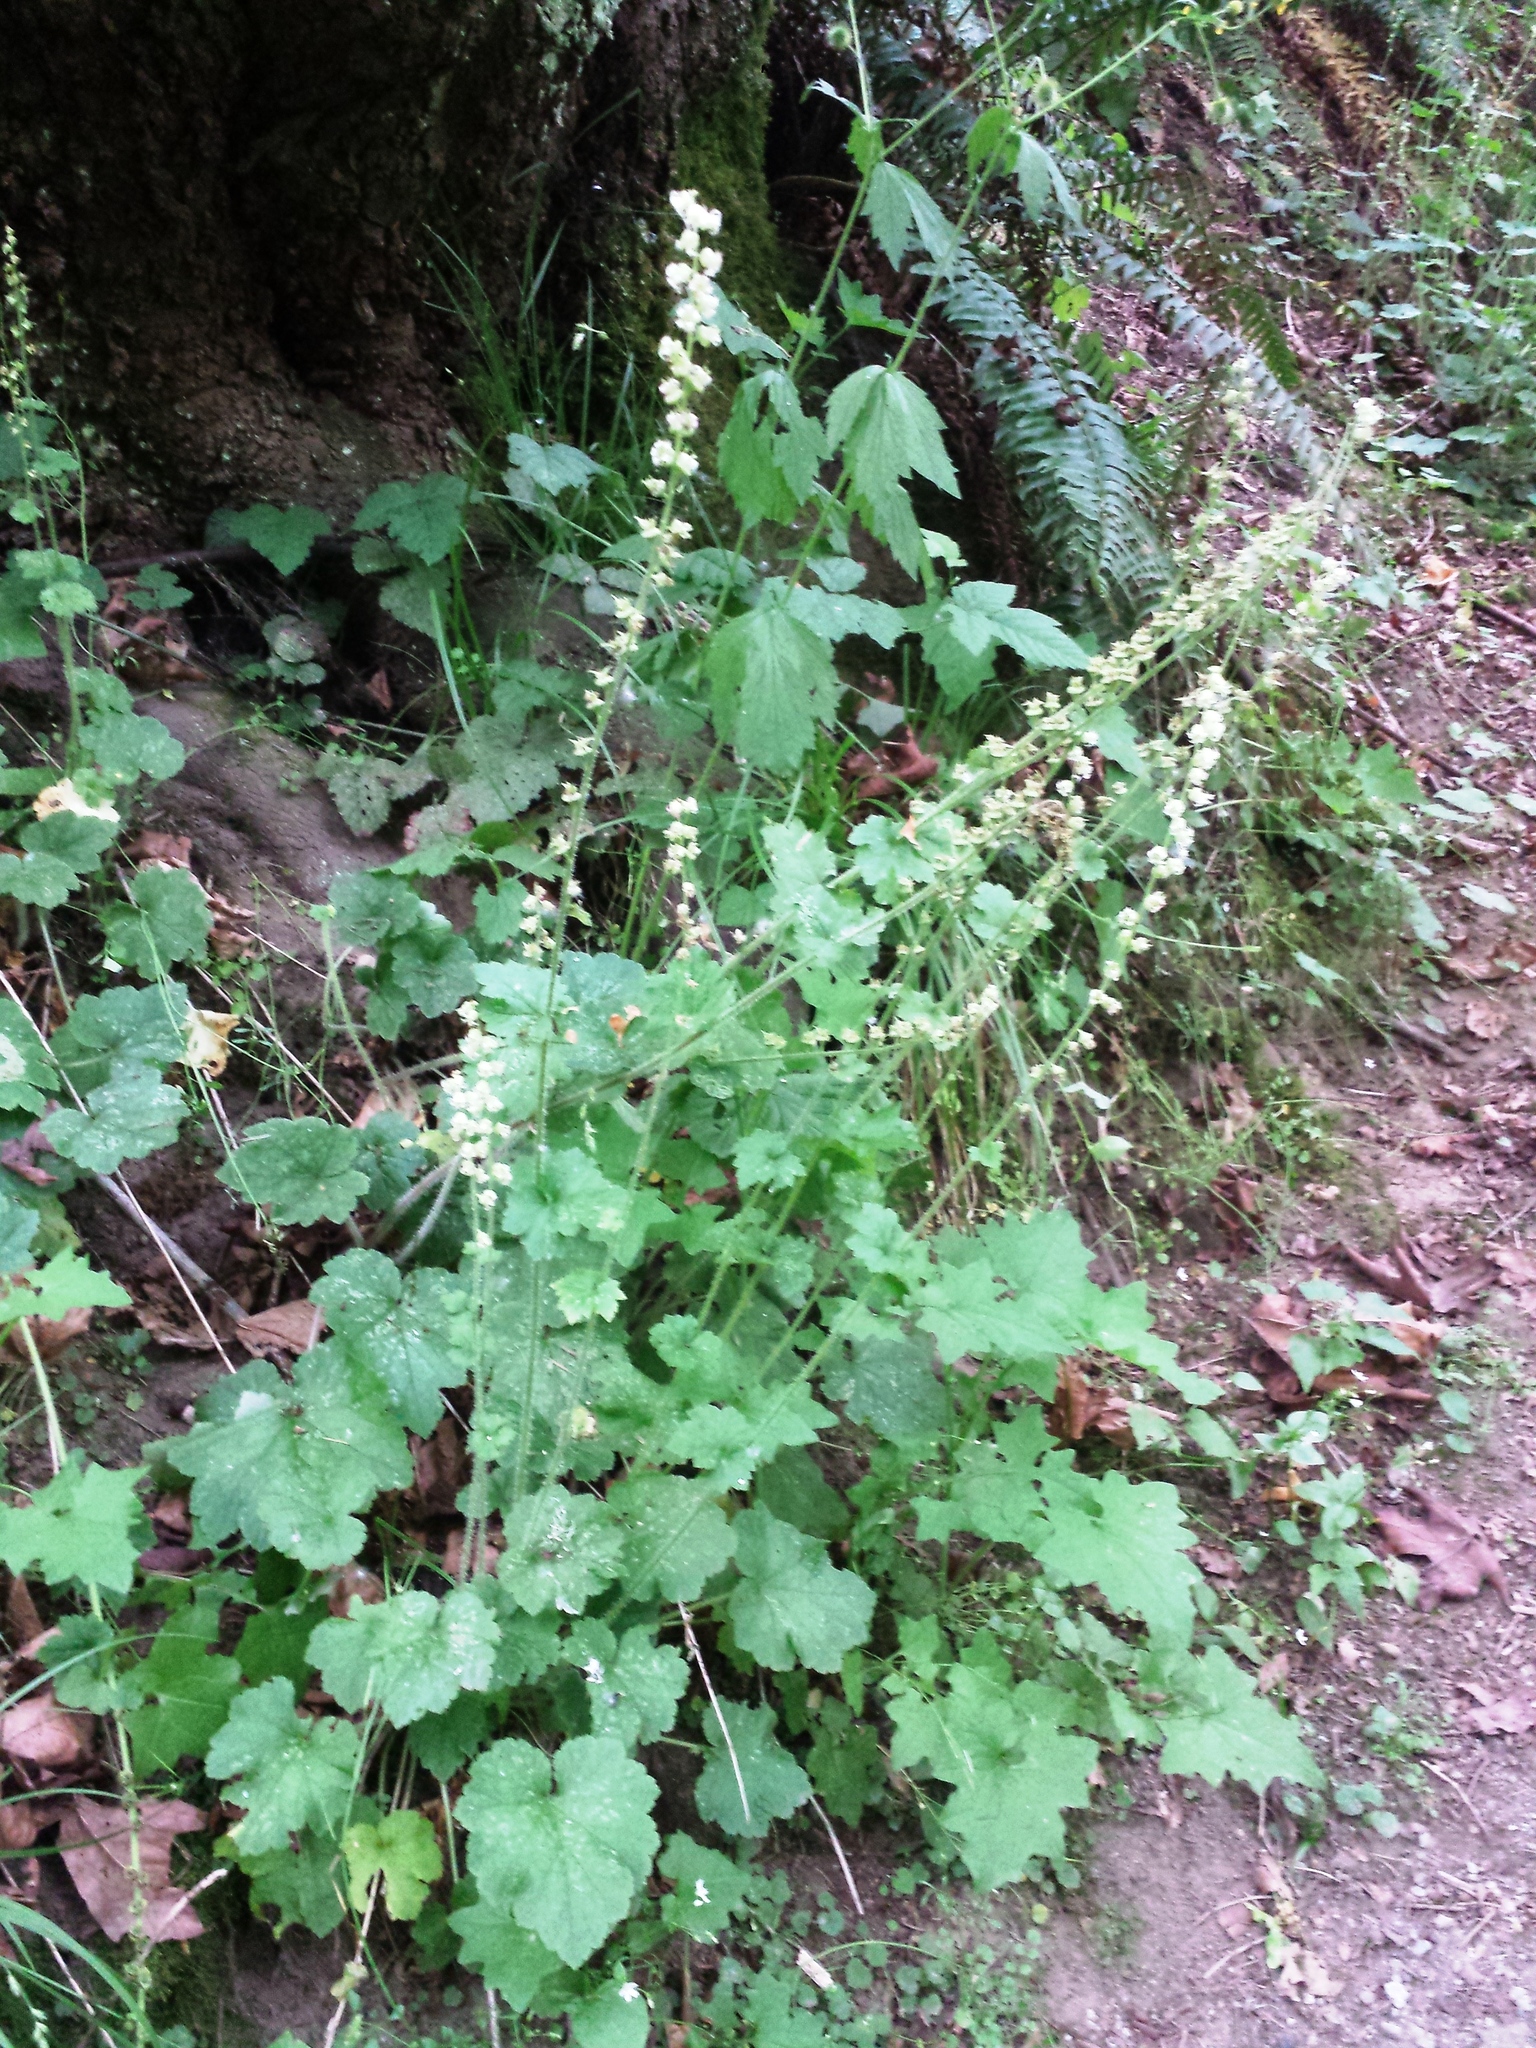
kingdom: Plantae
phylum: Tracheophyta
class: Magnoliopsida
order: Saxifragales
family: Saxifragaceae
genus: Tellima
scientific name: Tellima grandiflora
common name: Fringecups
